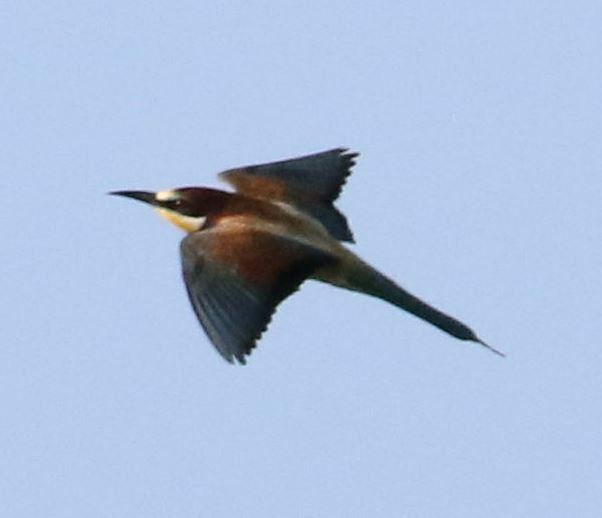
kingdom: Animalia
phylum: Chordata
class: Aves
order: Coraciiformes
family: Meropidae
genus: Merops
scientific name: Merops apiaster
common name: European bee-eater
